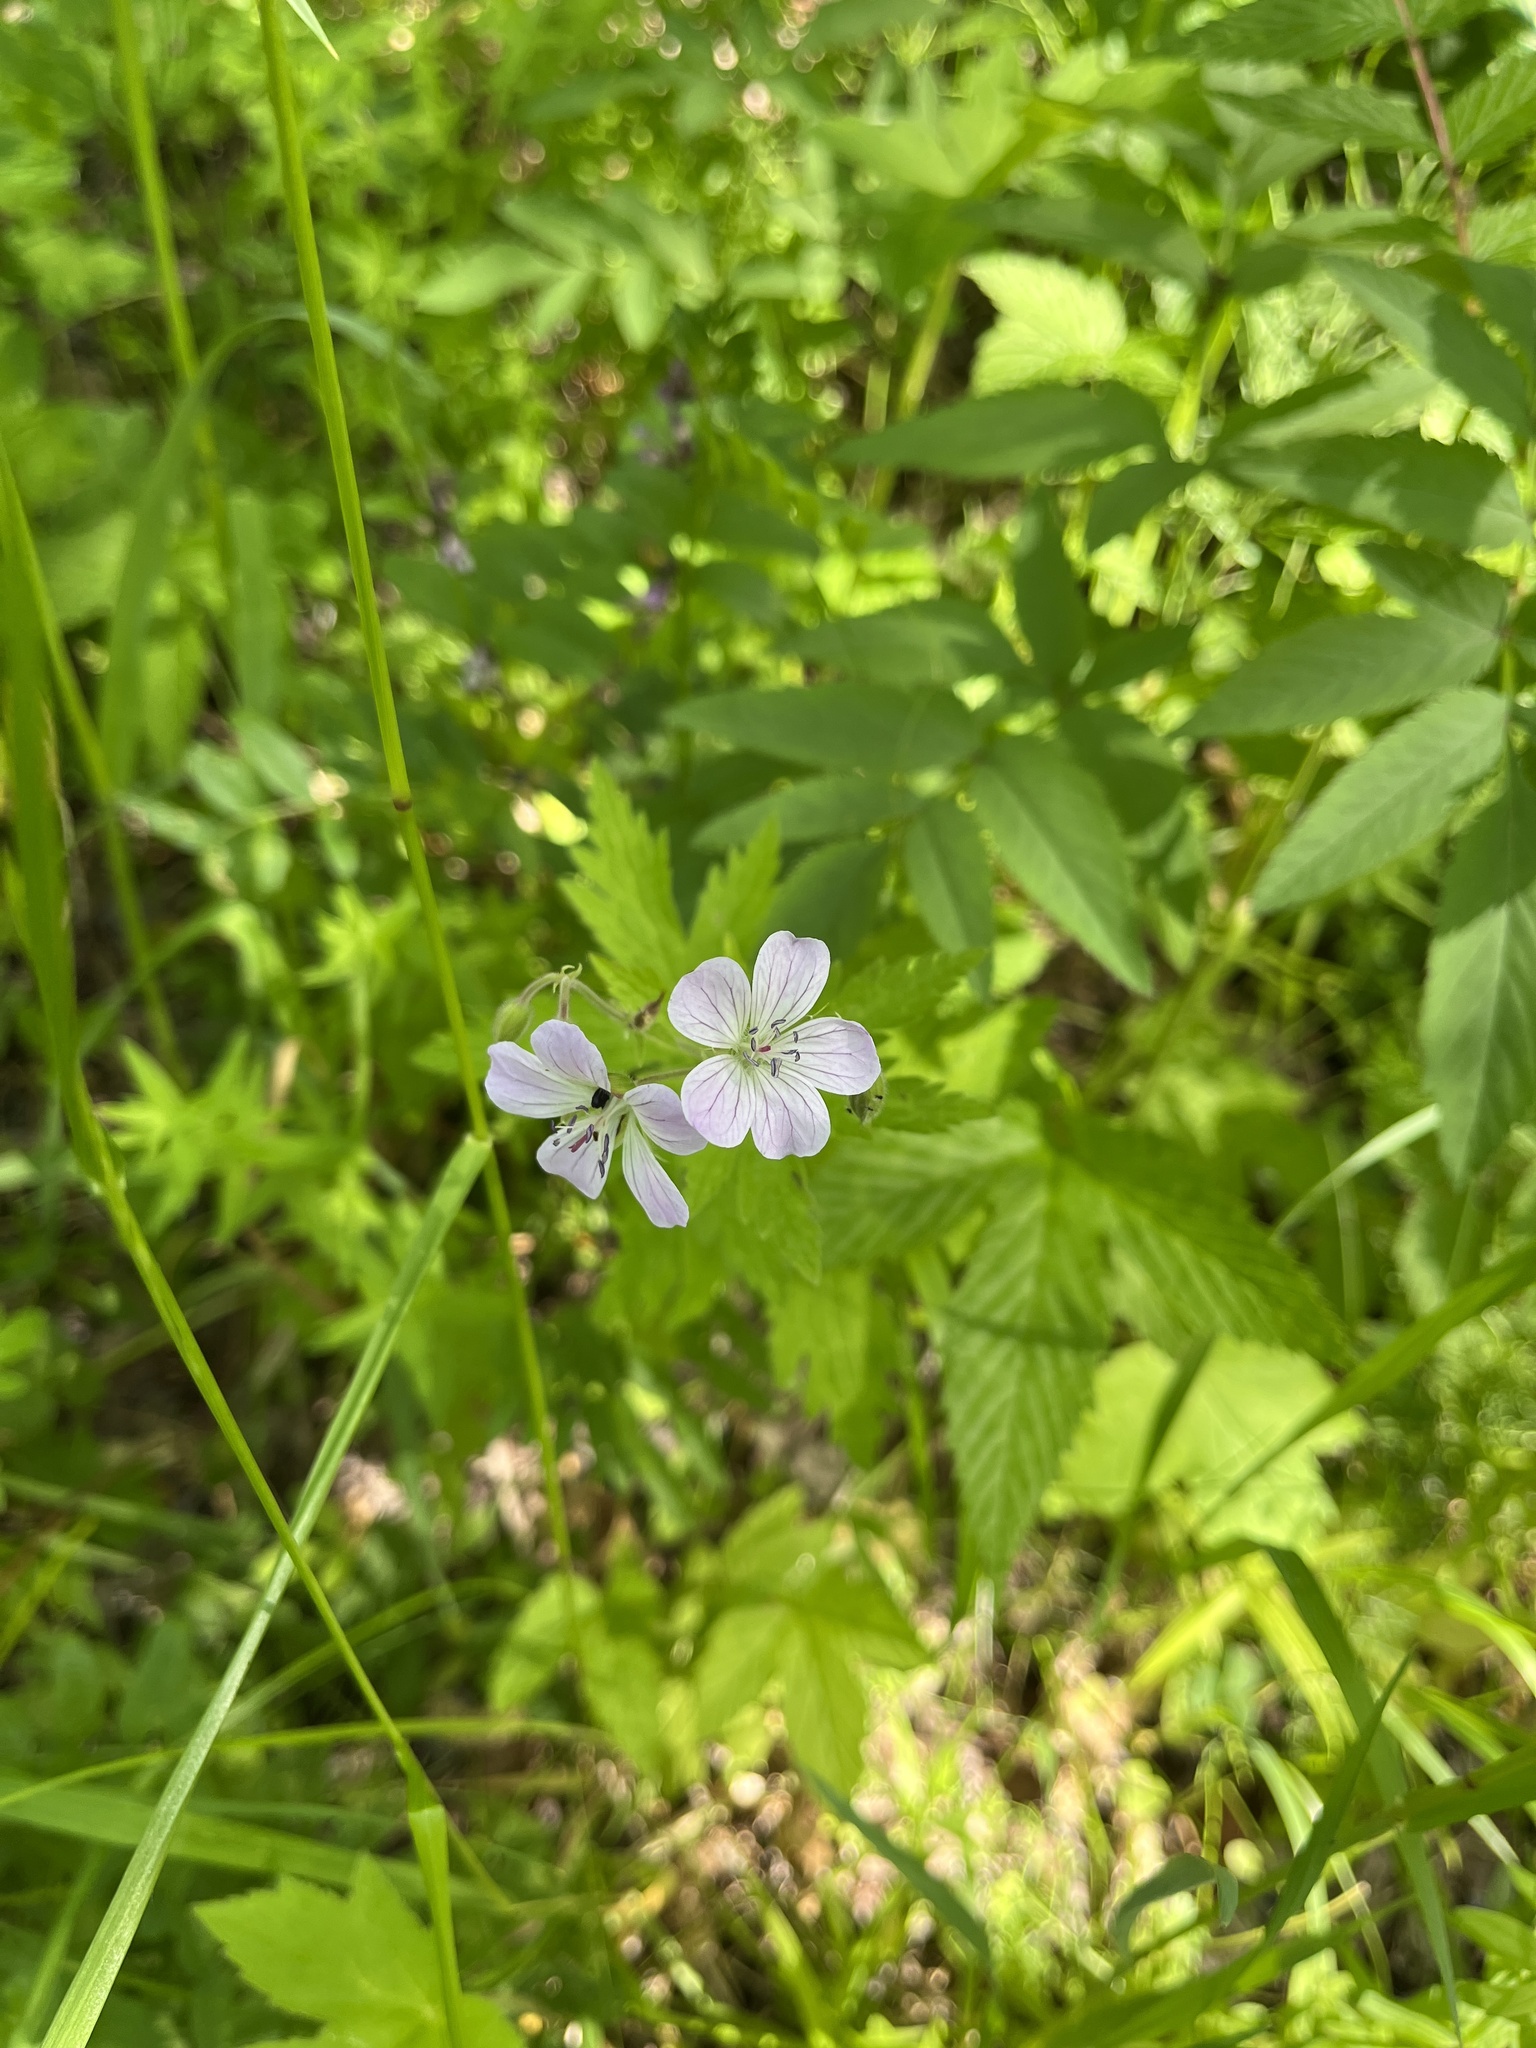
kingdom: Plantae
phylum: Tracheophyta
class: Magnoliopsida
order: Geraniales
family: Geraniaceae
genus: Geranium
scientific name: Geranium sylvaticum
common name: Wood crane's-bill
